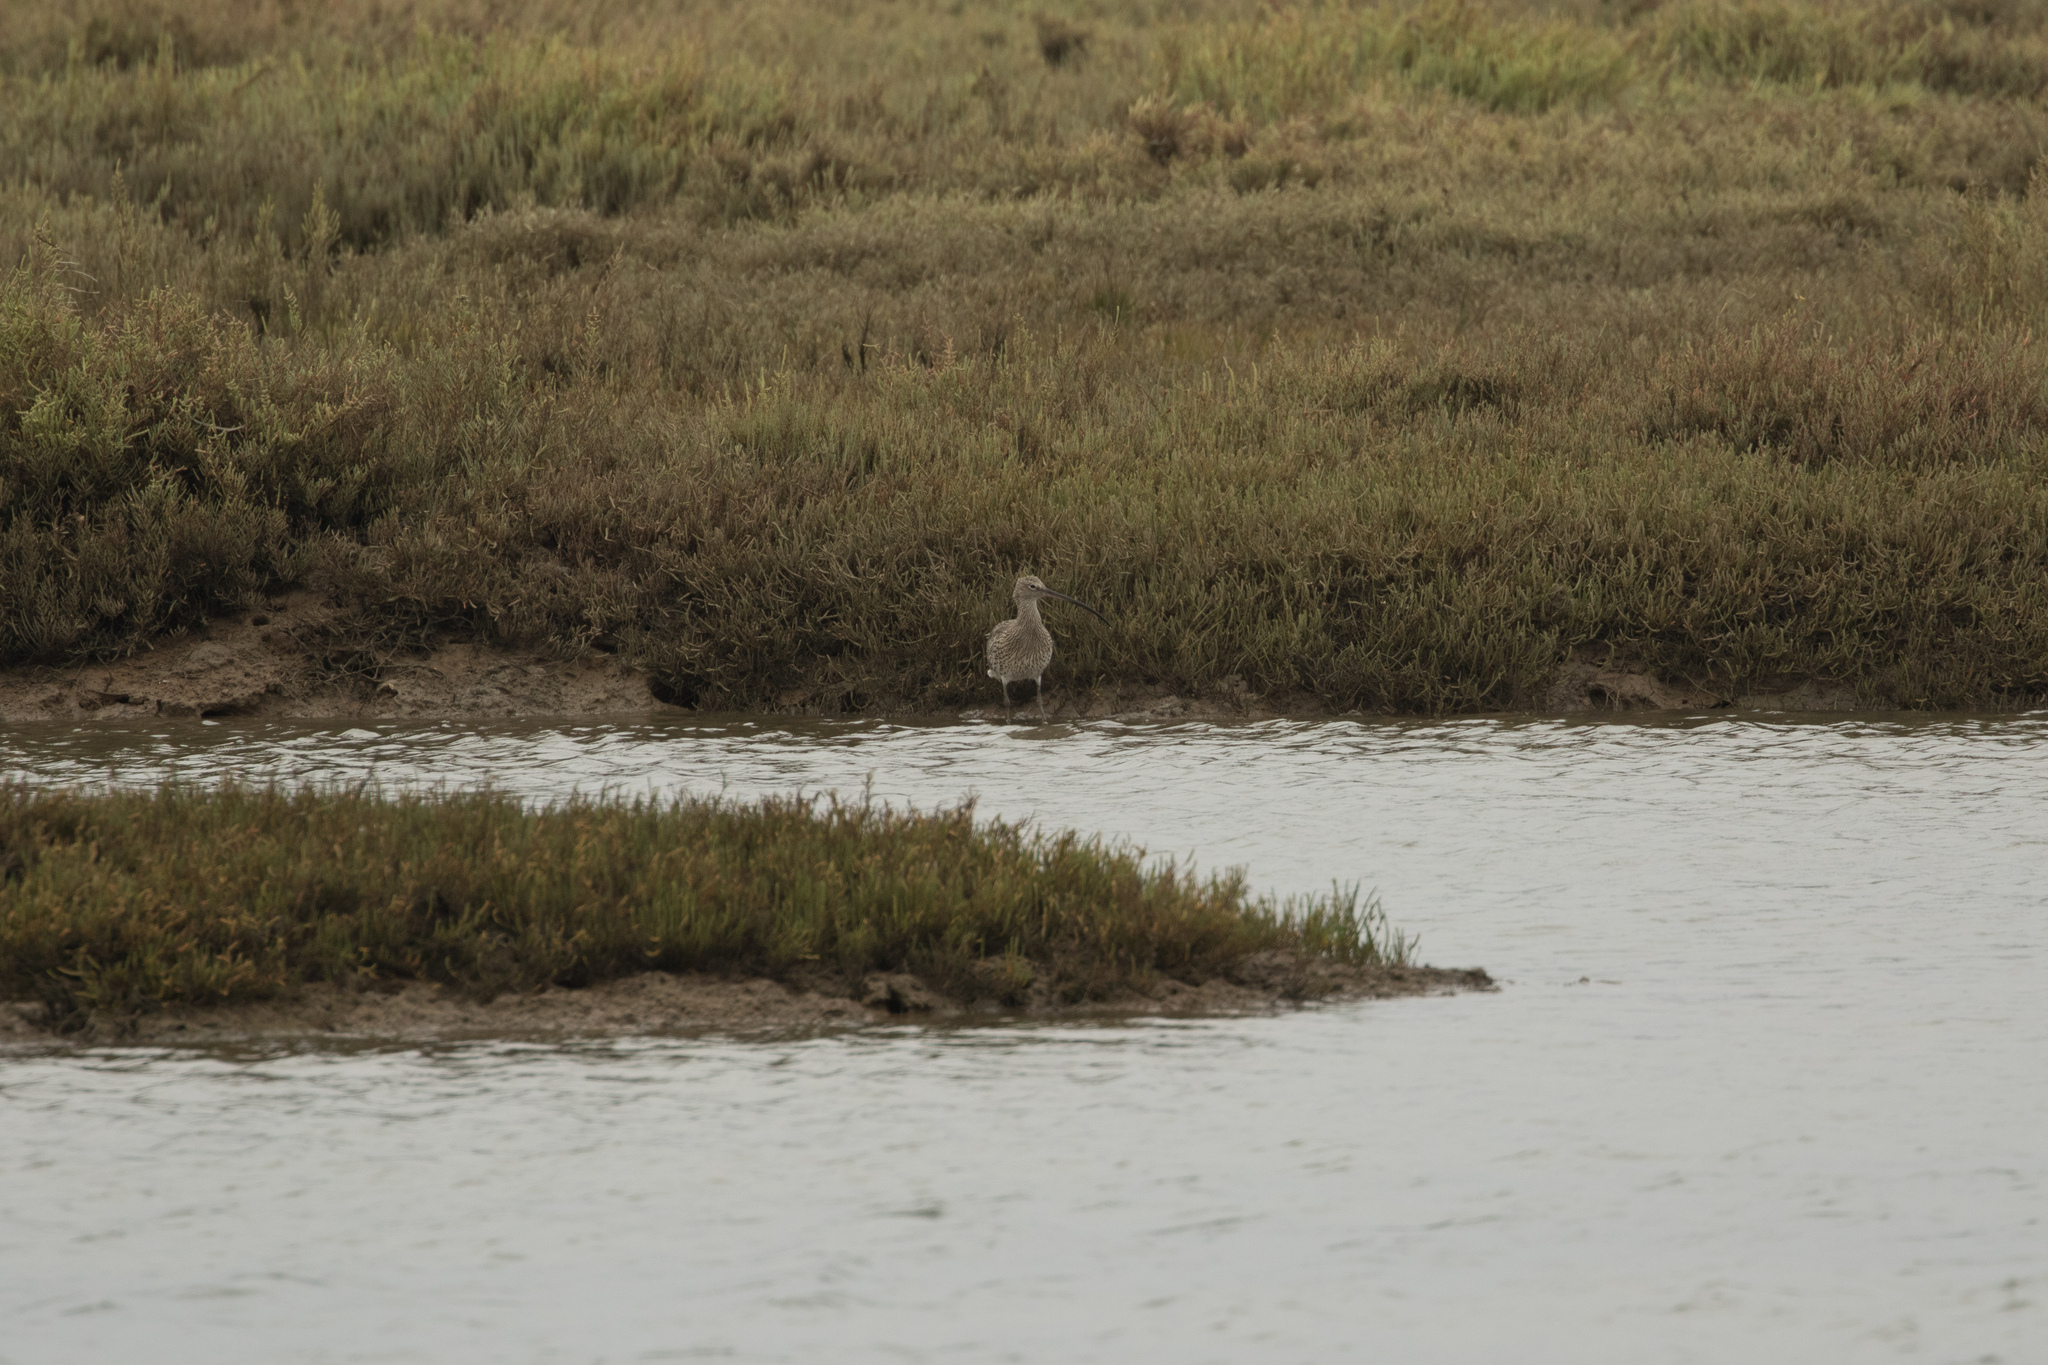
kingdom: Animalia
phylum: Chordata
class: Aves
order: Charadriiformes
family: Scolopacidae
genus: Numenius
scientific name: Numenius arquata
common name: Eurasian curlew
